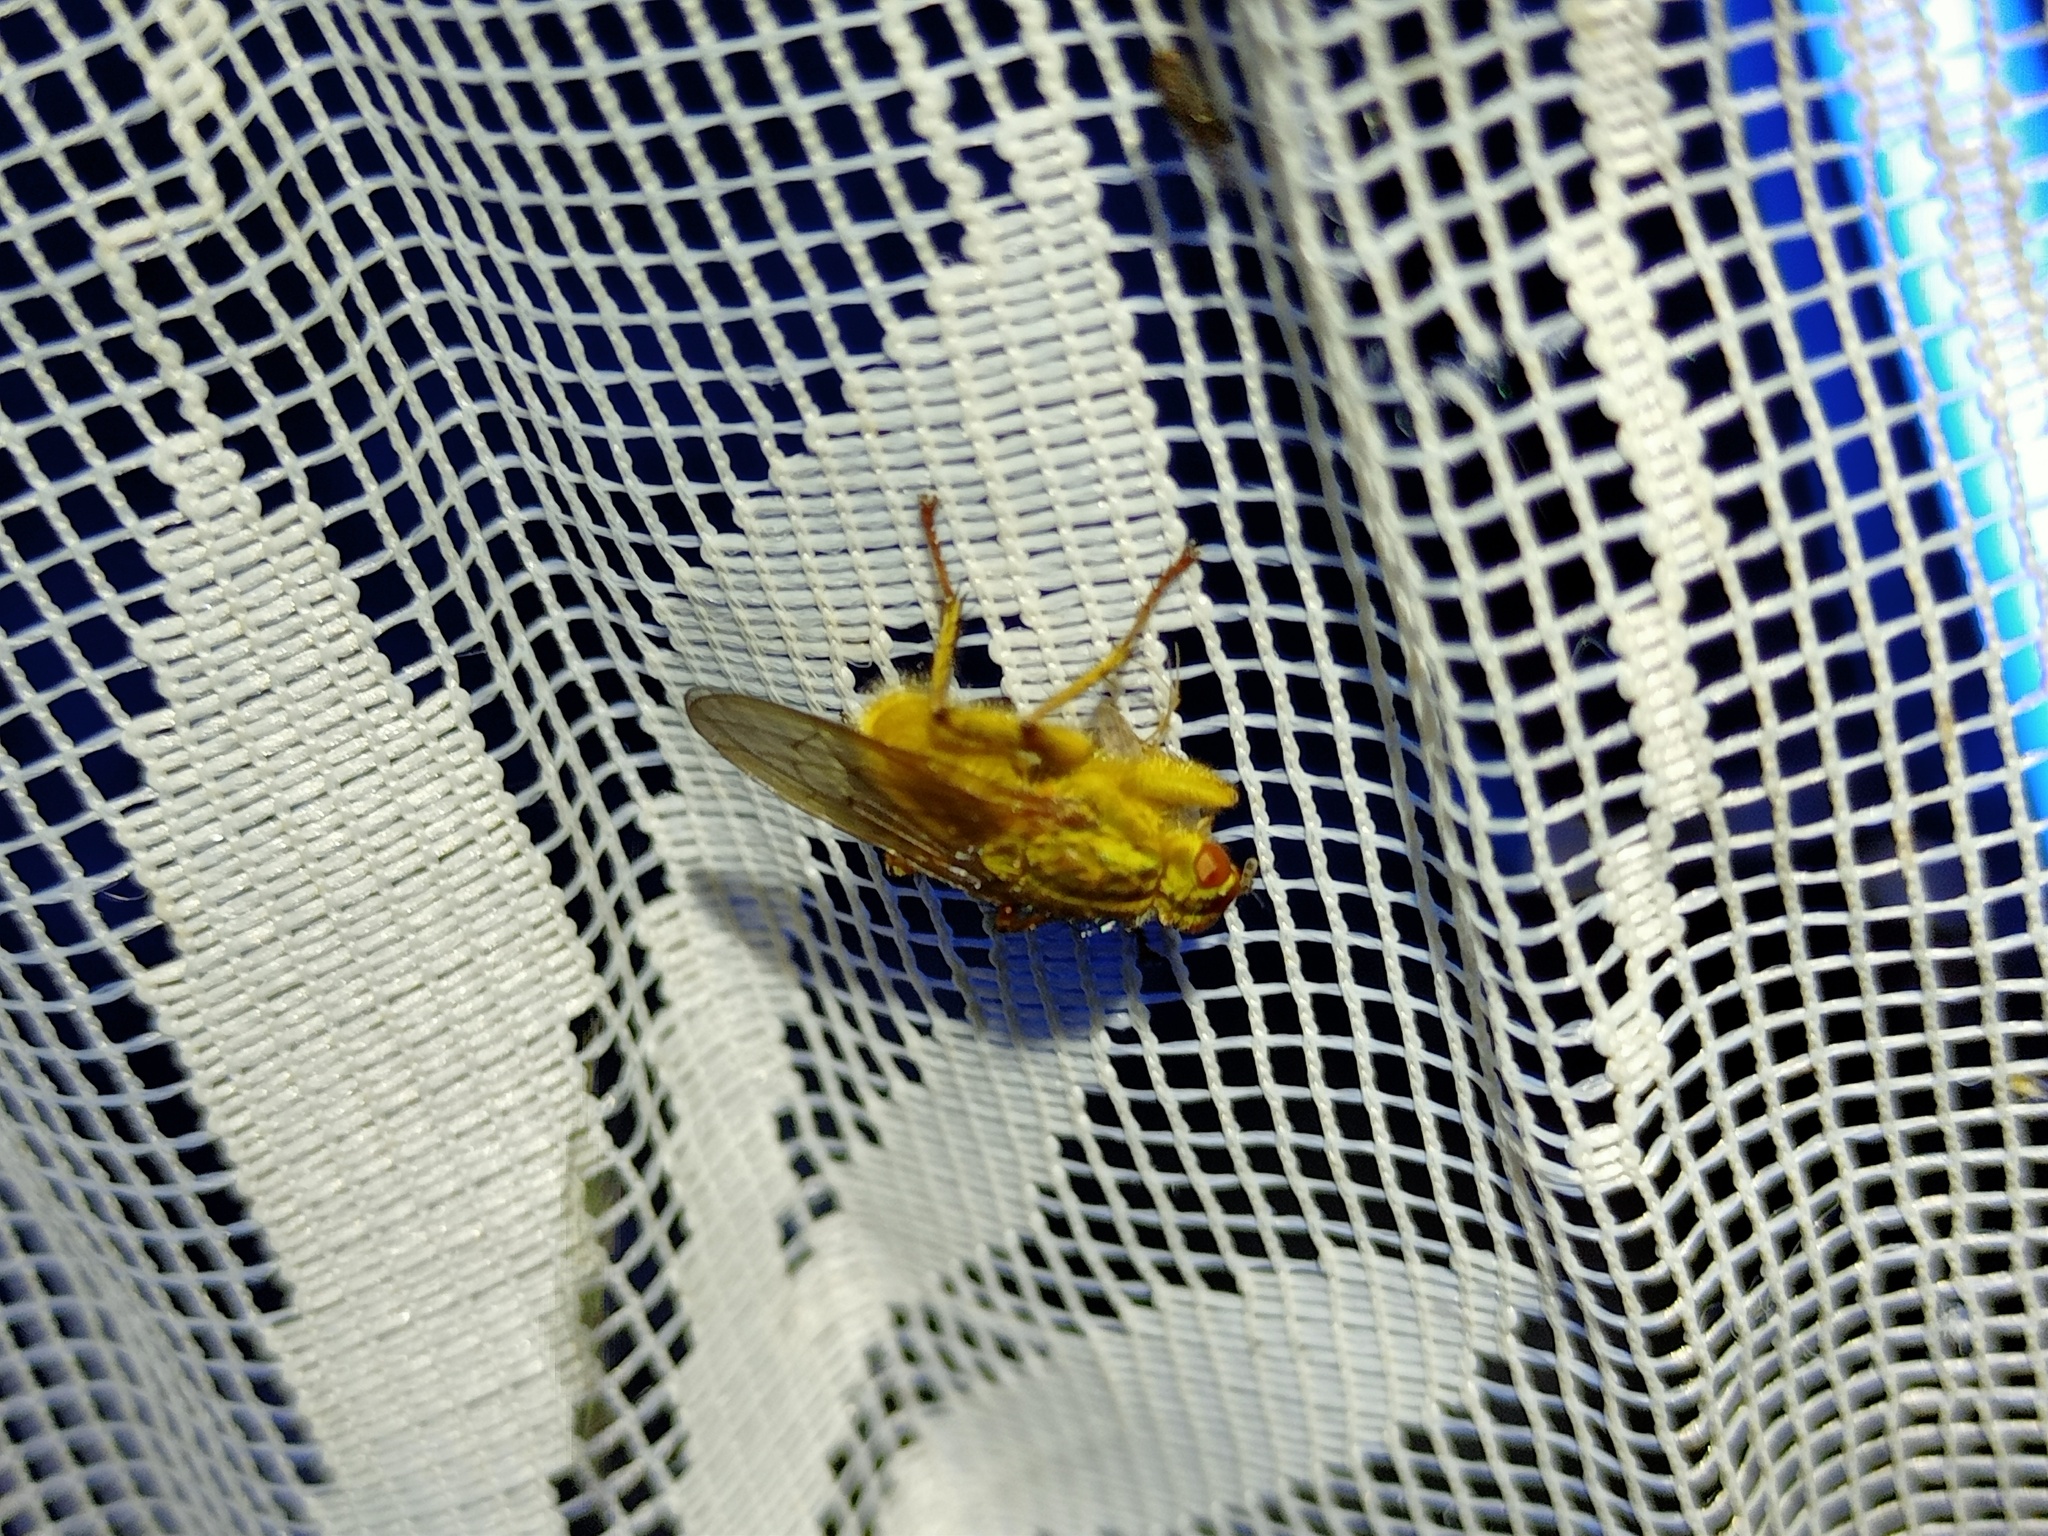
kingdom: Animalia
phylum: Arthropoda
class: Insecta
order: Diptera
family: Scathophagidae
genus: Scathophaga
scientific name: Scathophaga stercoraria
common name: Yellow dung fly
